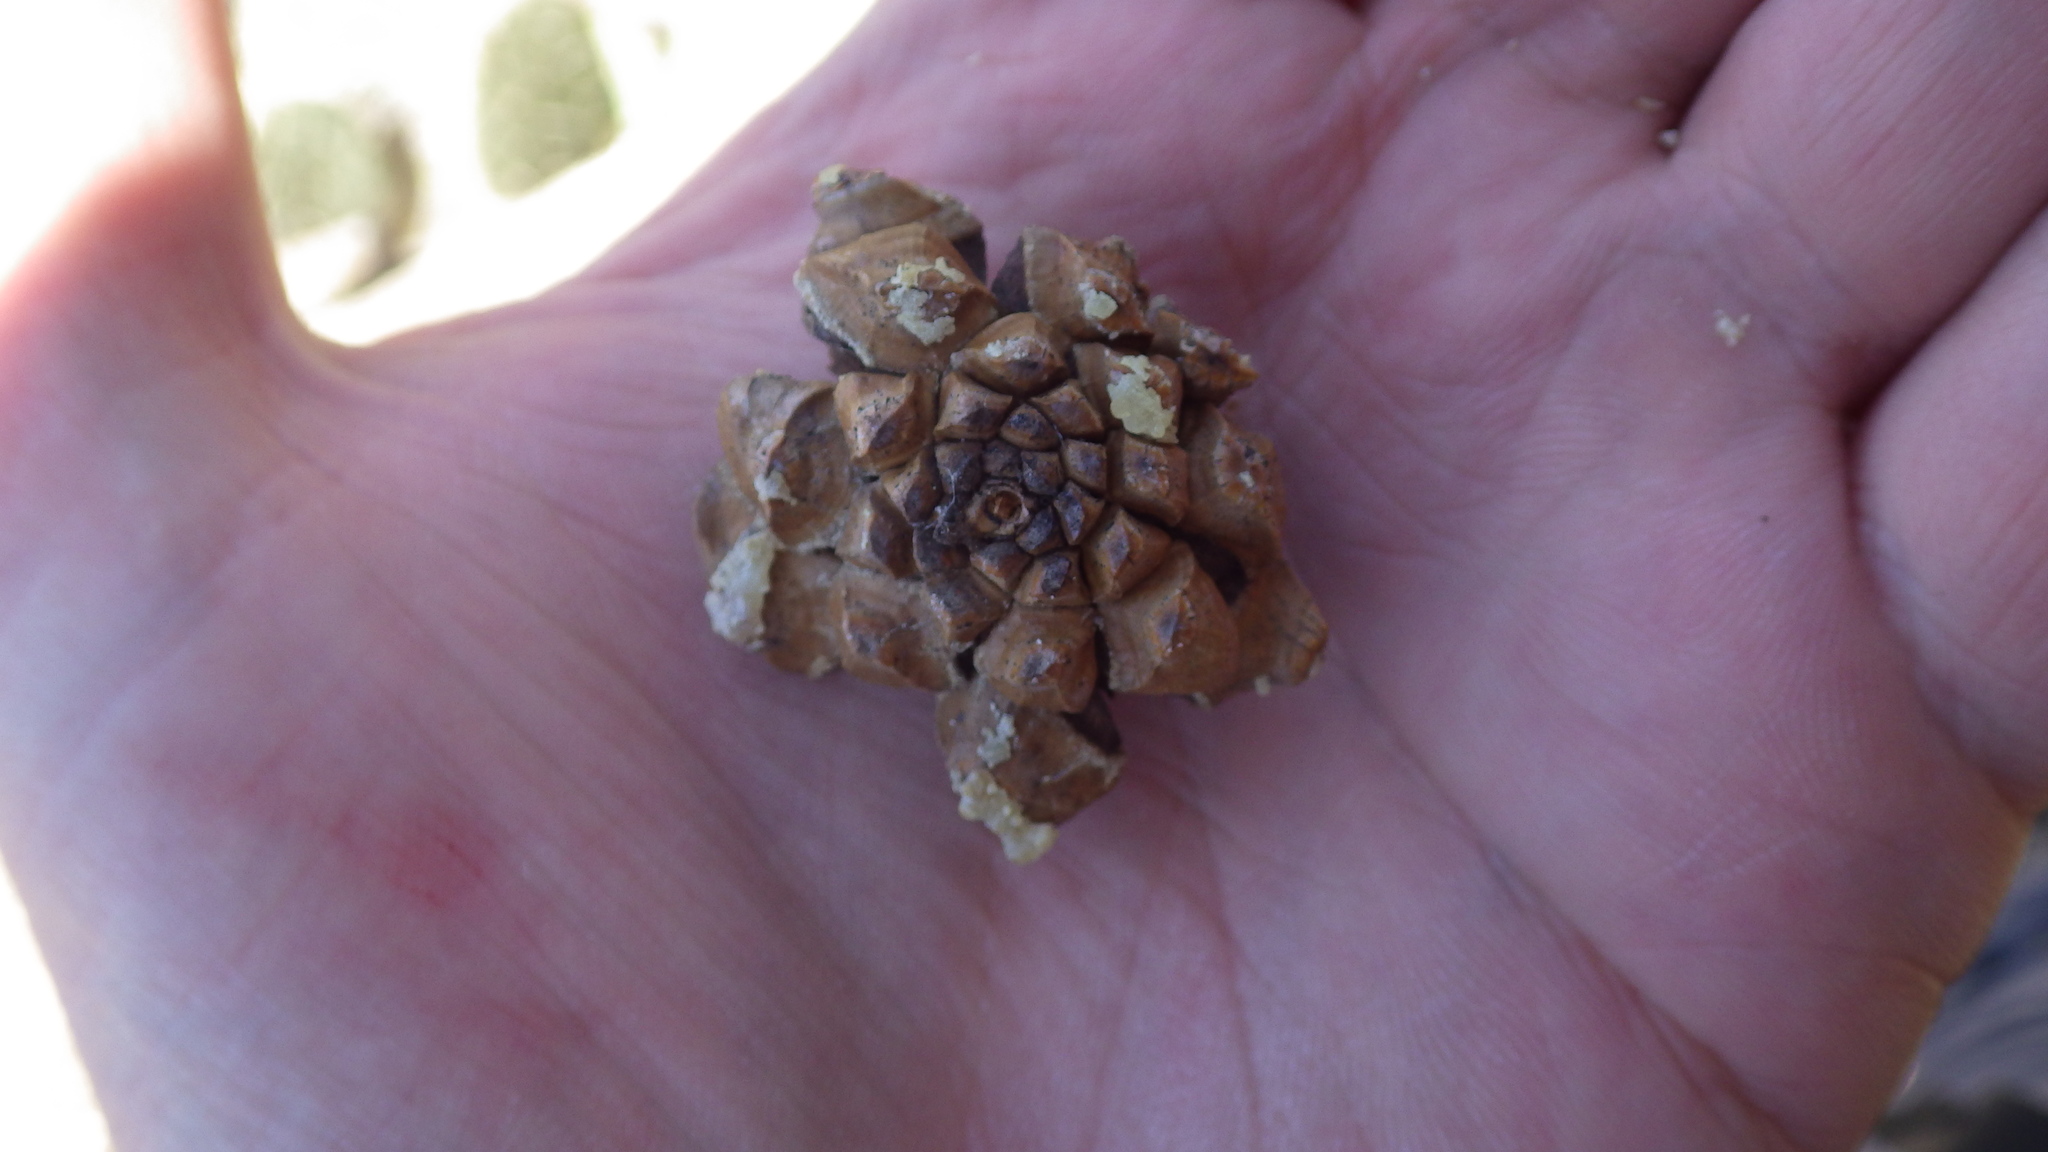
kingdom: Plantae
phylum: Tracheophyta
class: Pinopsida
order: Pinales
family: Pinaceae
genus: Pinus
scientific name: Pinus edulis
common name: Colorado pinyon
